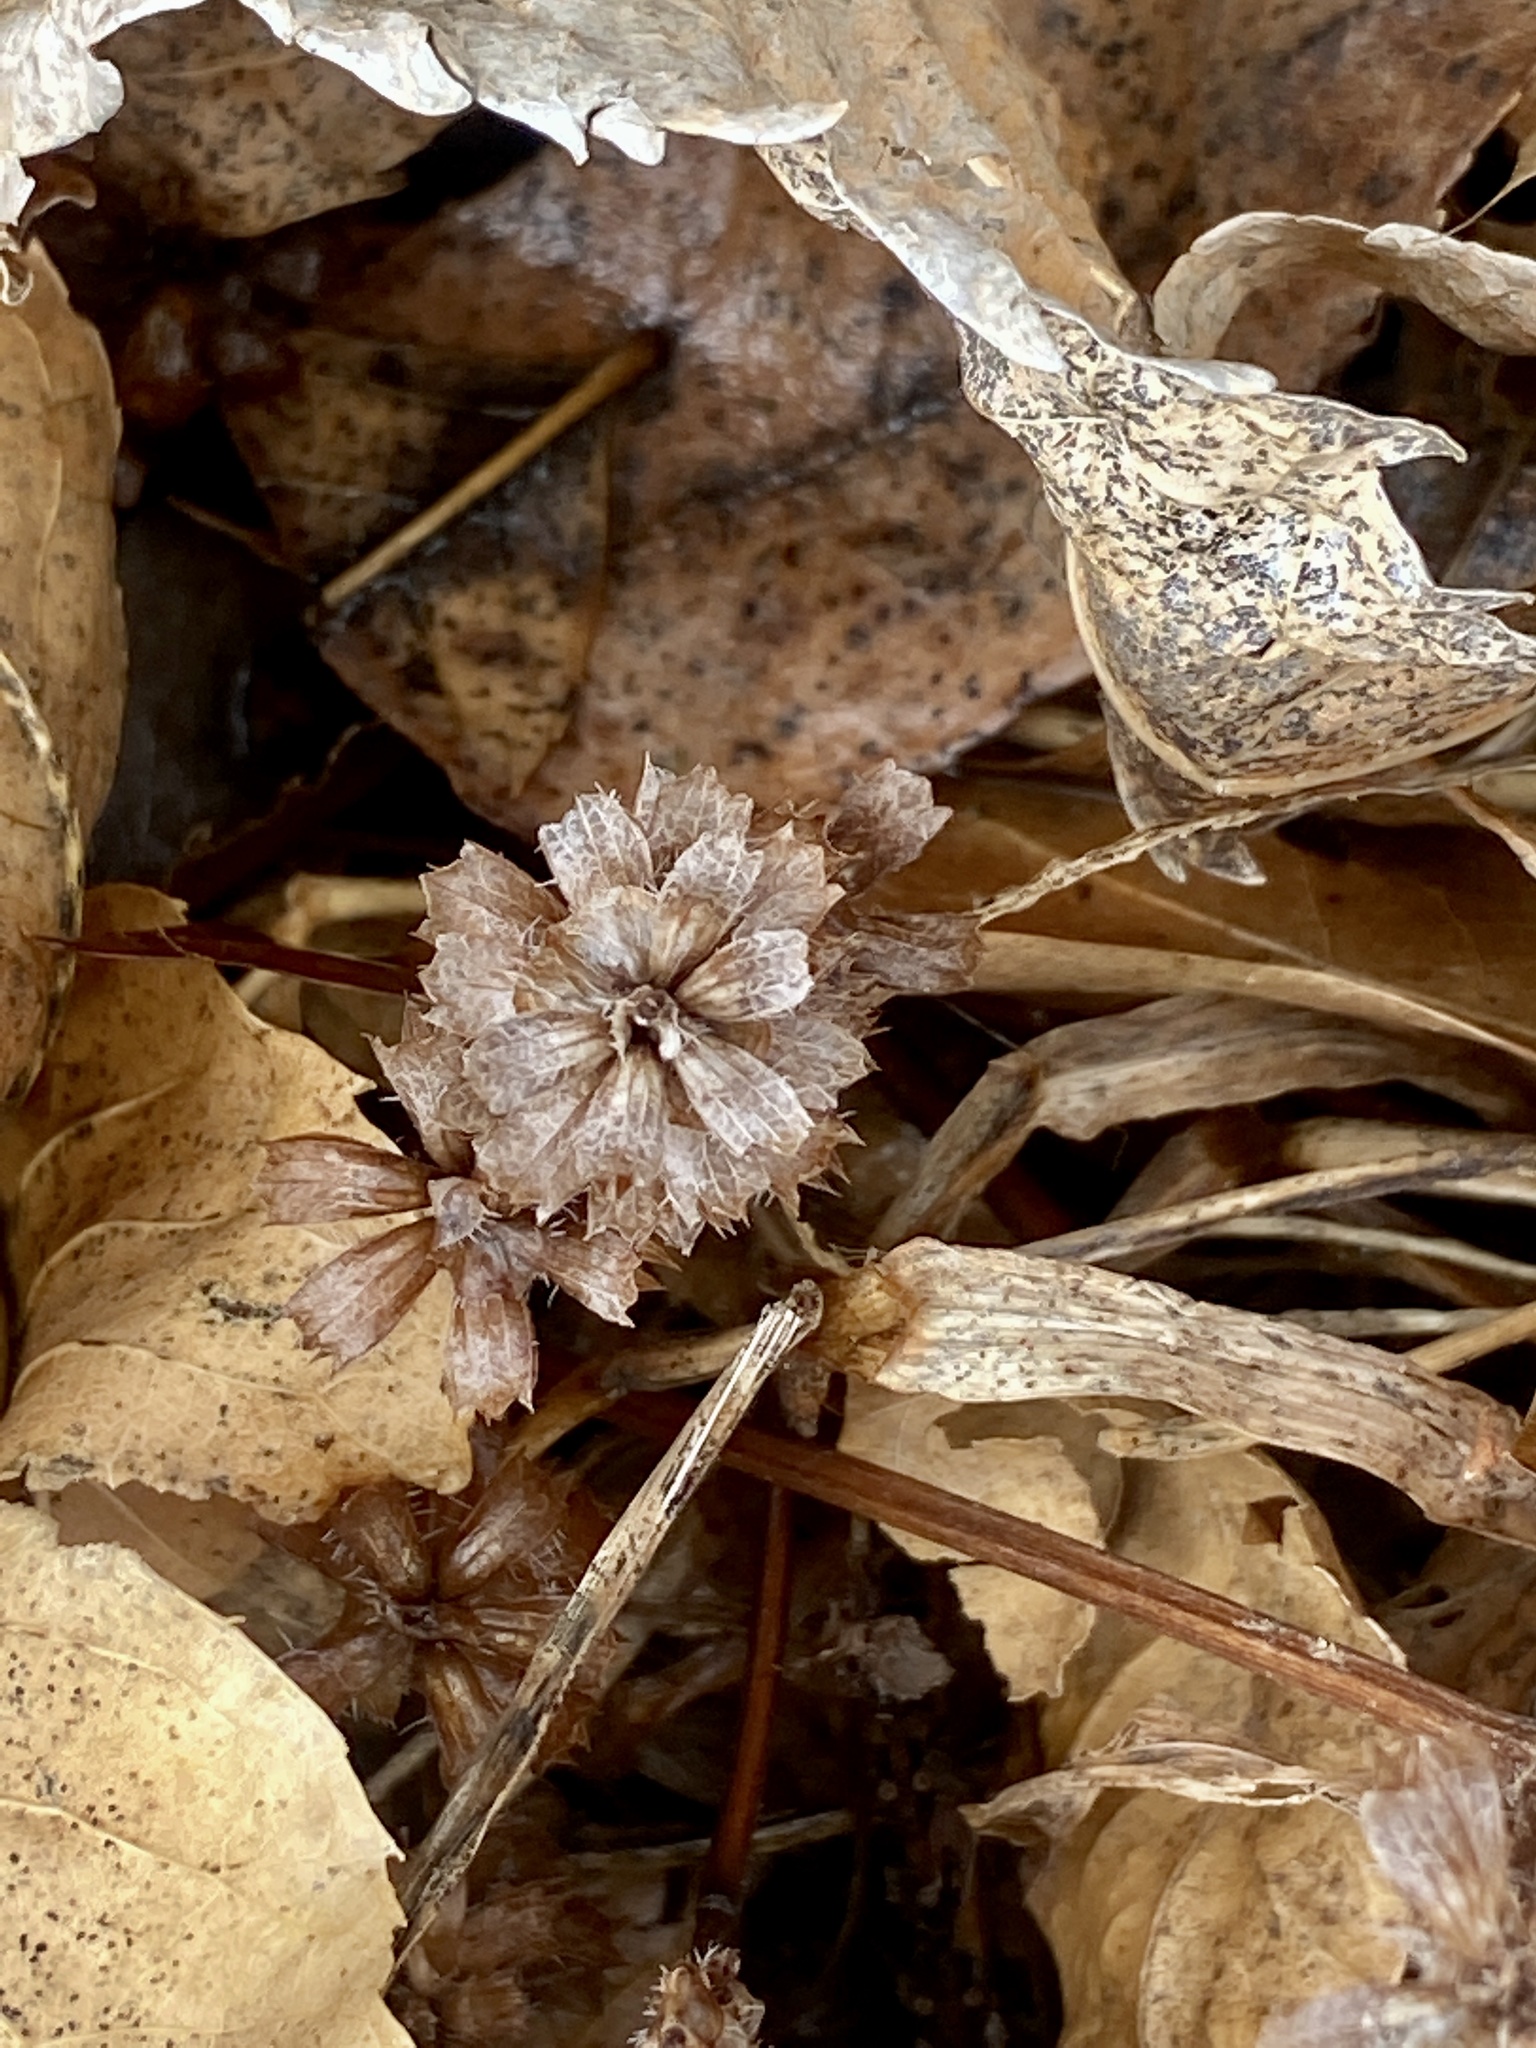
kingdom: Plantae
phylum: Tracheophyta
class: Magnoliopsida
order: Lamiales
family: Lamiaceae
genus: Prunella
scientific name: Prunella vulgaris
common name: Heal-all
